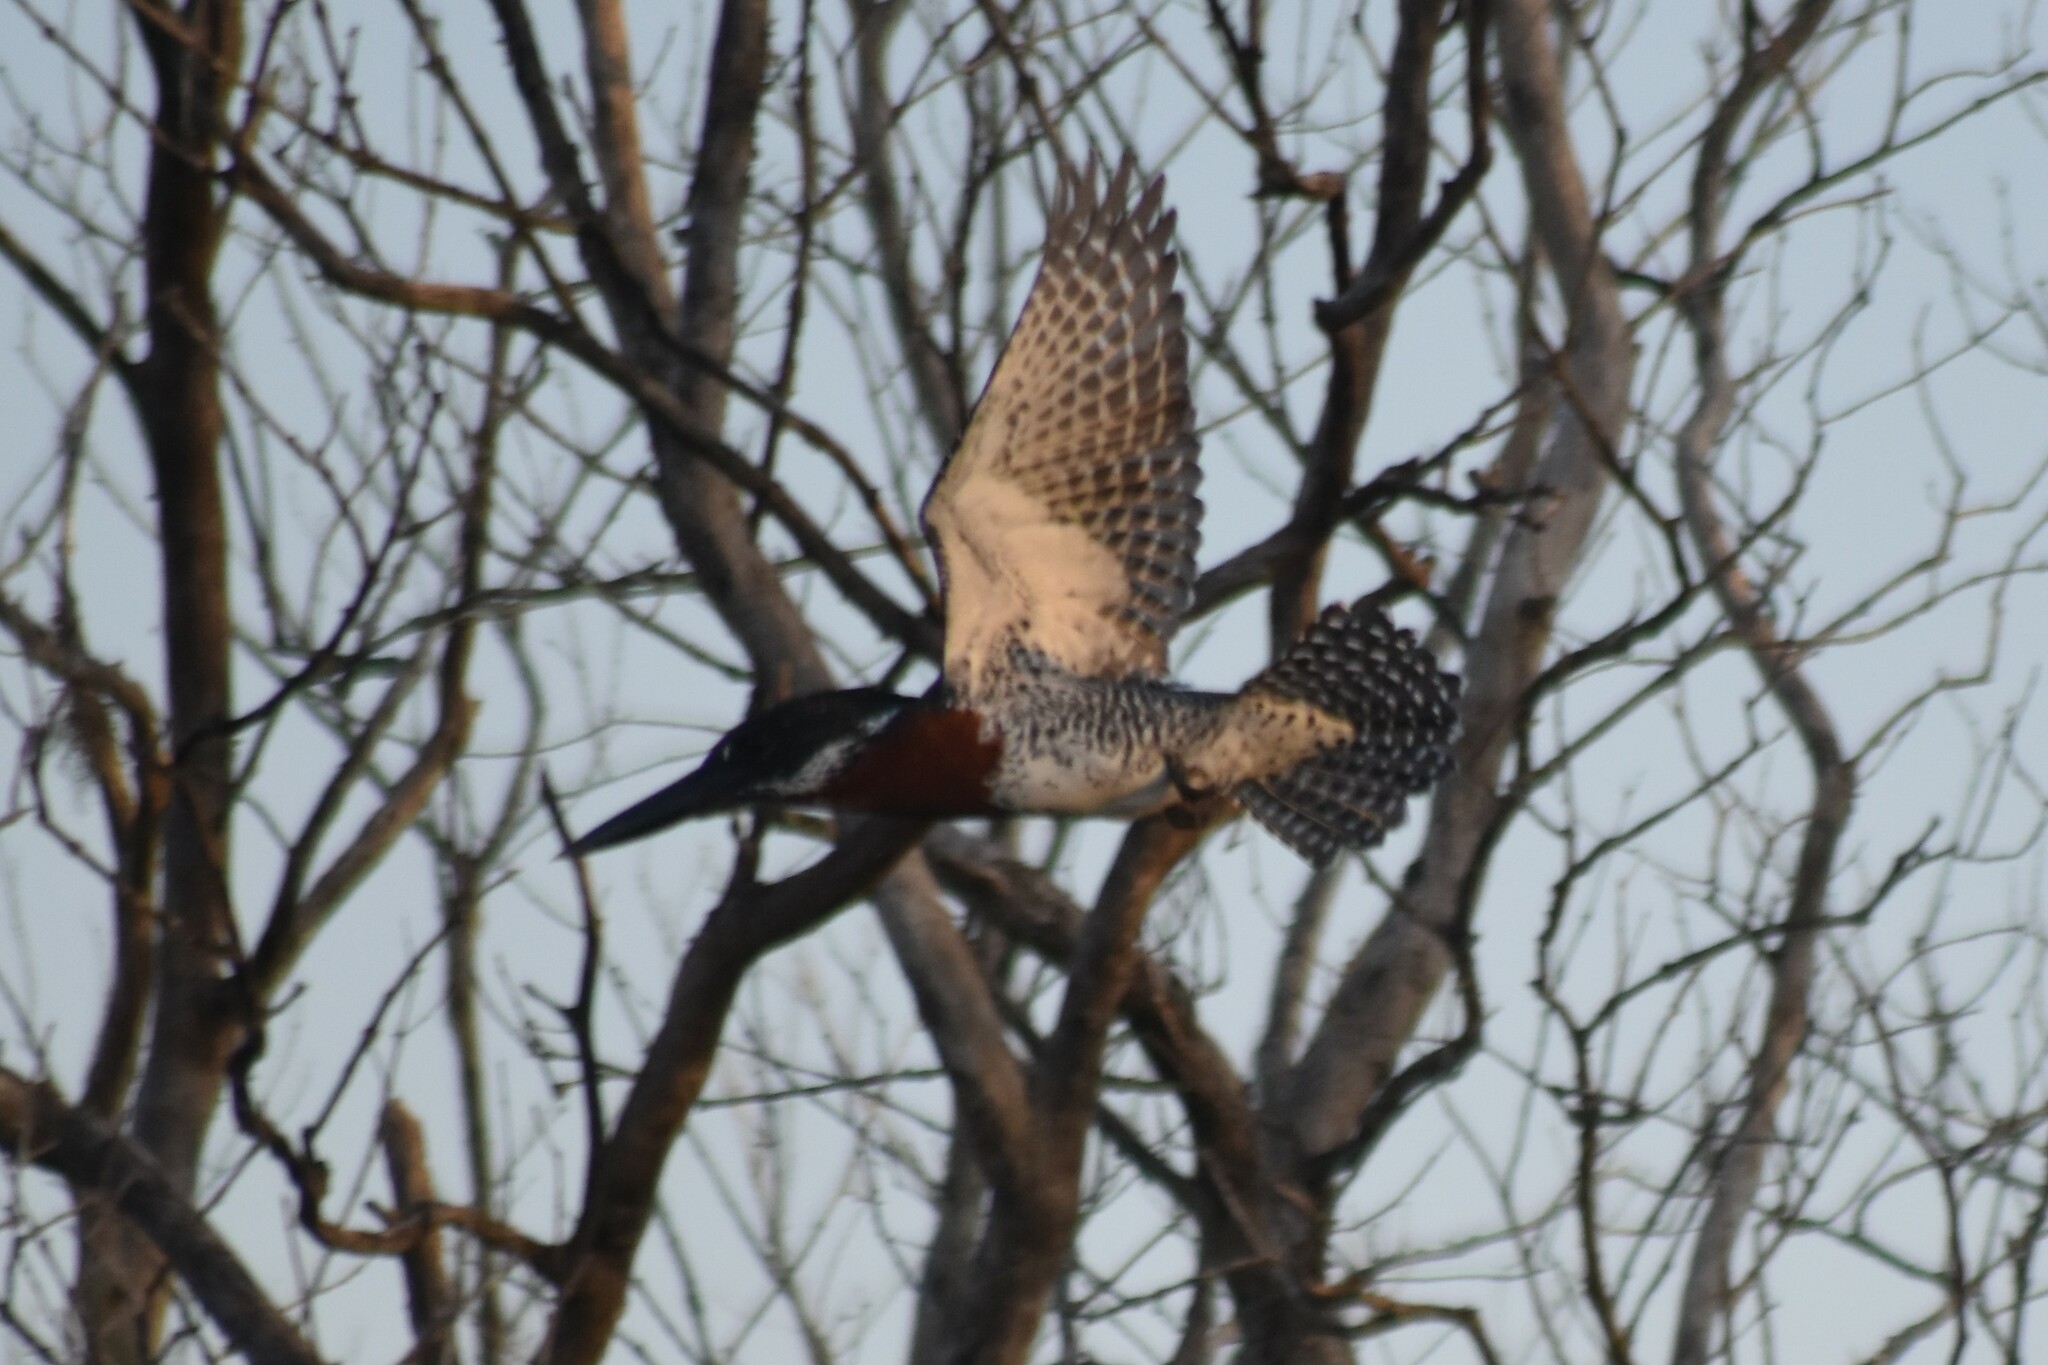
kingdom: Animalia
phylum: Chordata
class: Aves
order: Coraciiformes
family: Alcedinidae
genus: Megaceryle
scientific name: Megaceryle maxima
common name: Giant kingfisher
